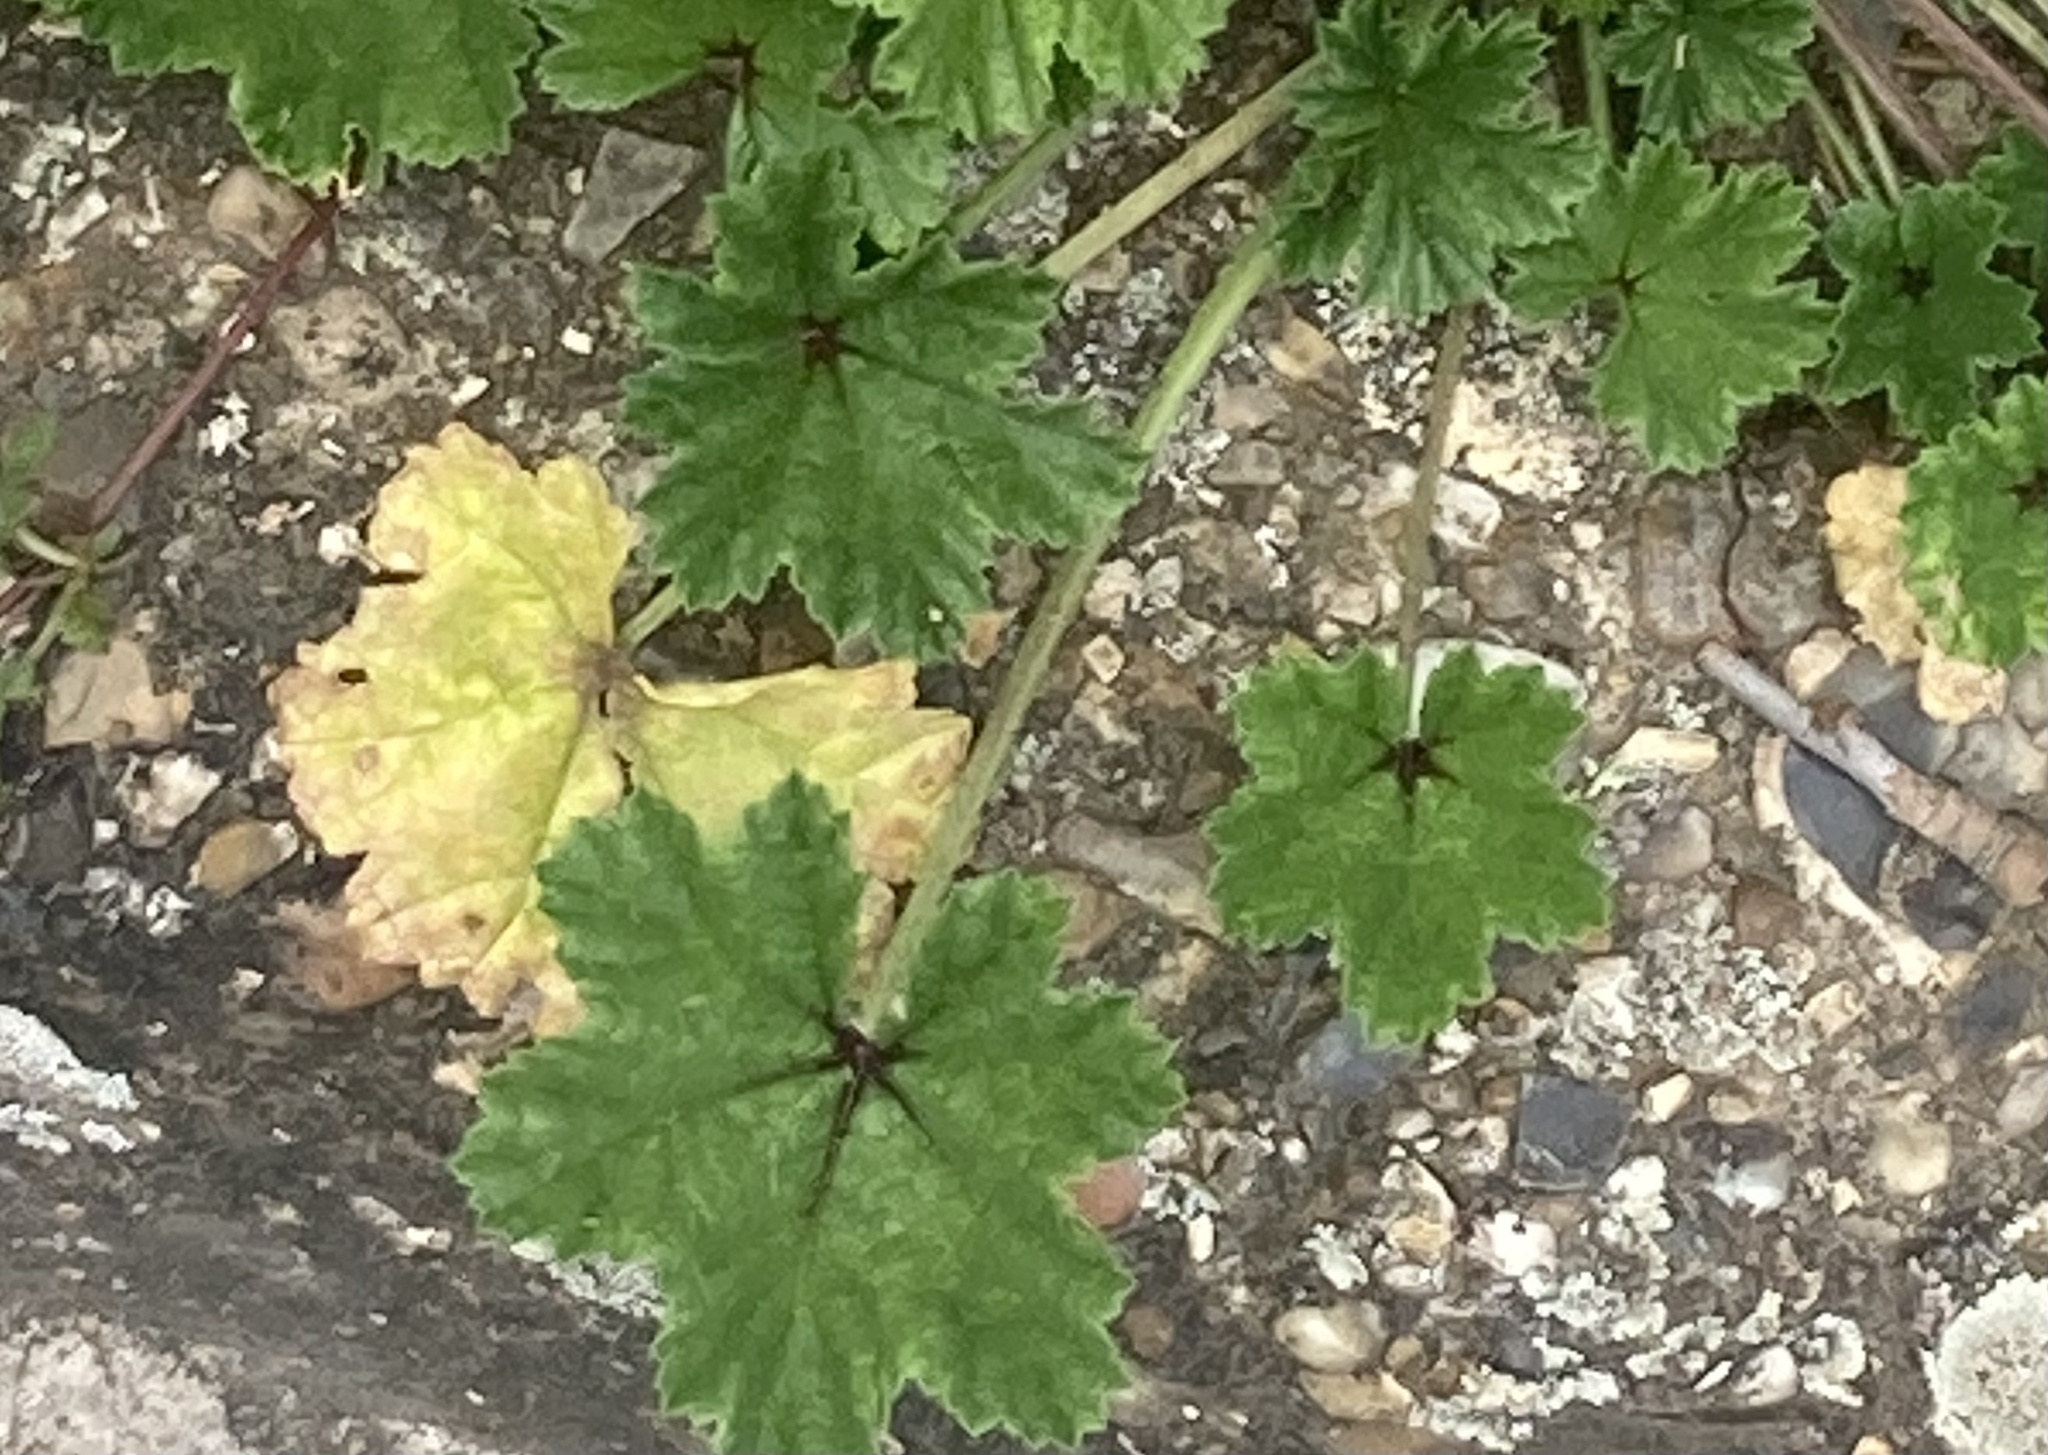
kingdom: Plantae
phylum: Tracheophyta
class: Magnoliopsida
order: Malvales
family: Malvaceae
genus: Malva
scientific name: Malva sylvestris
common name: Common mallow
